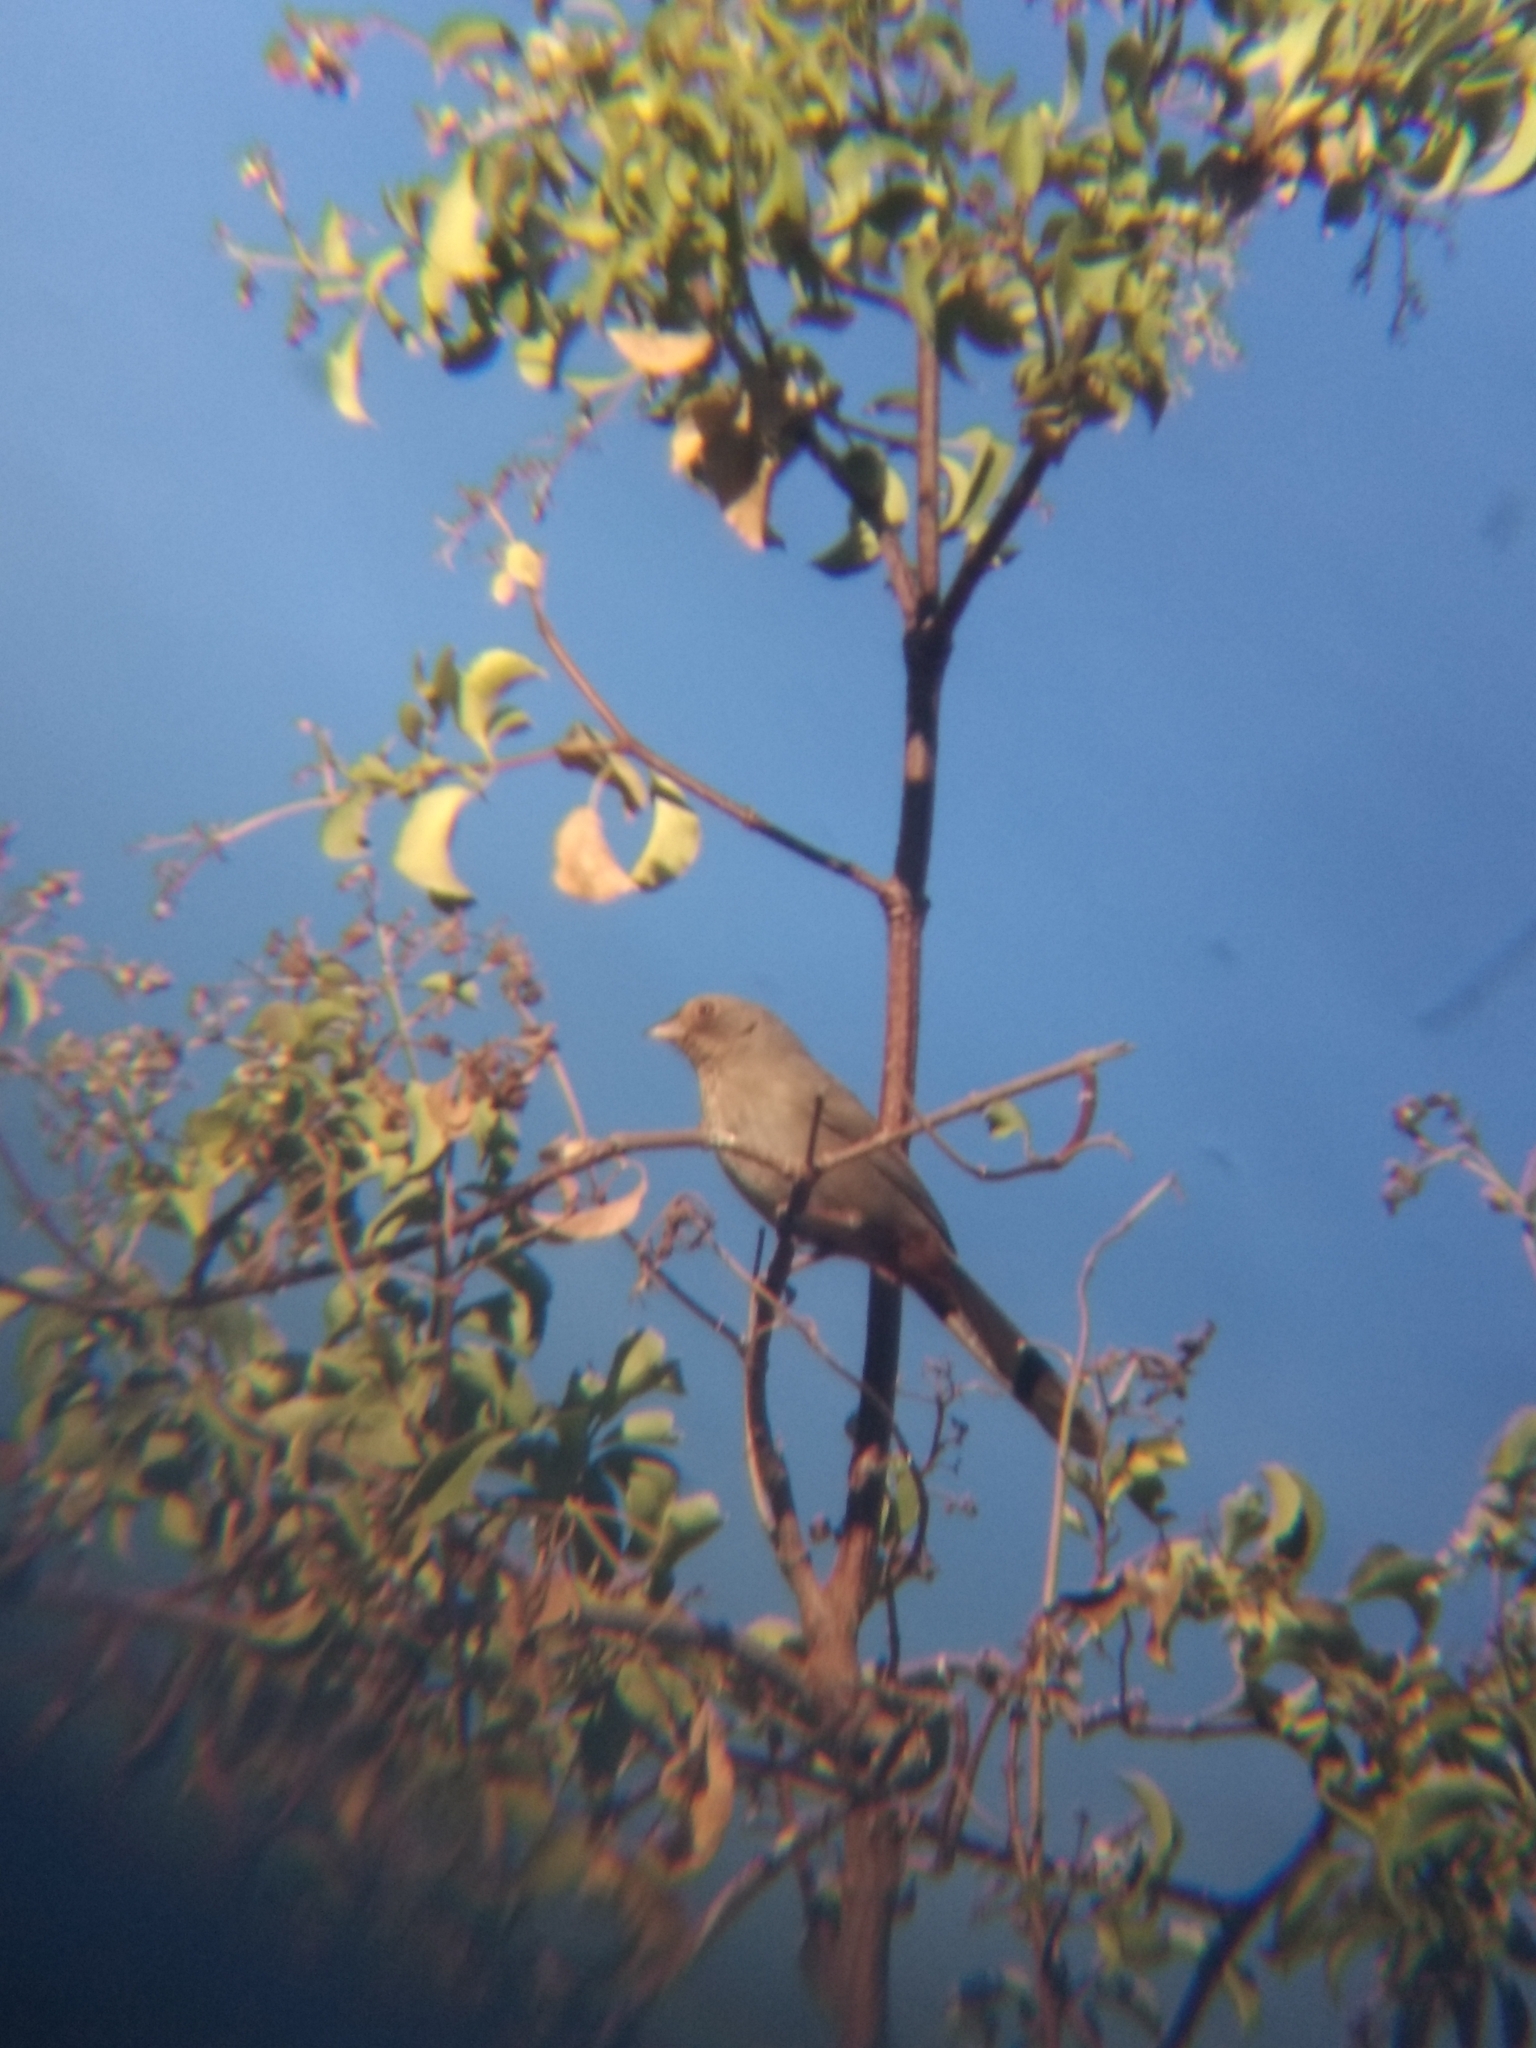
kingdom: Animalia
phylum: Chordata
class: Aves
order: Passeriformes
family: Passerellidae
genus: Melozone
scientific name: Melozone crissalis
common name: California towhee
